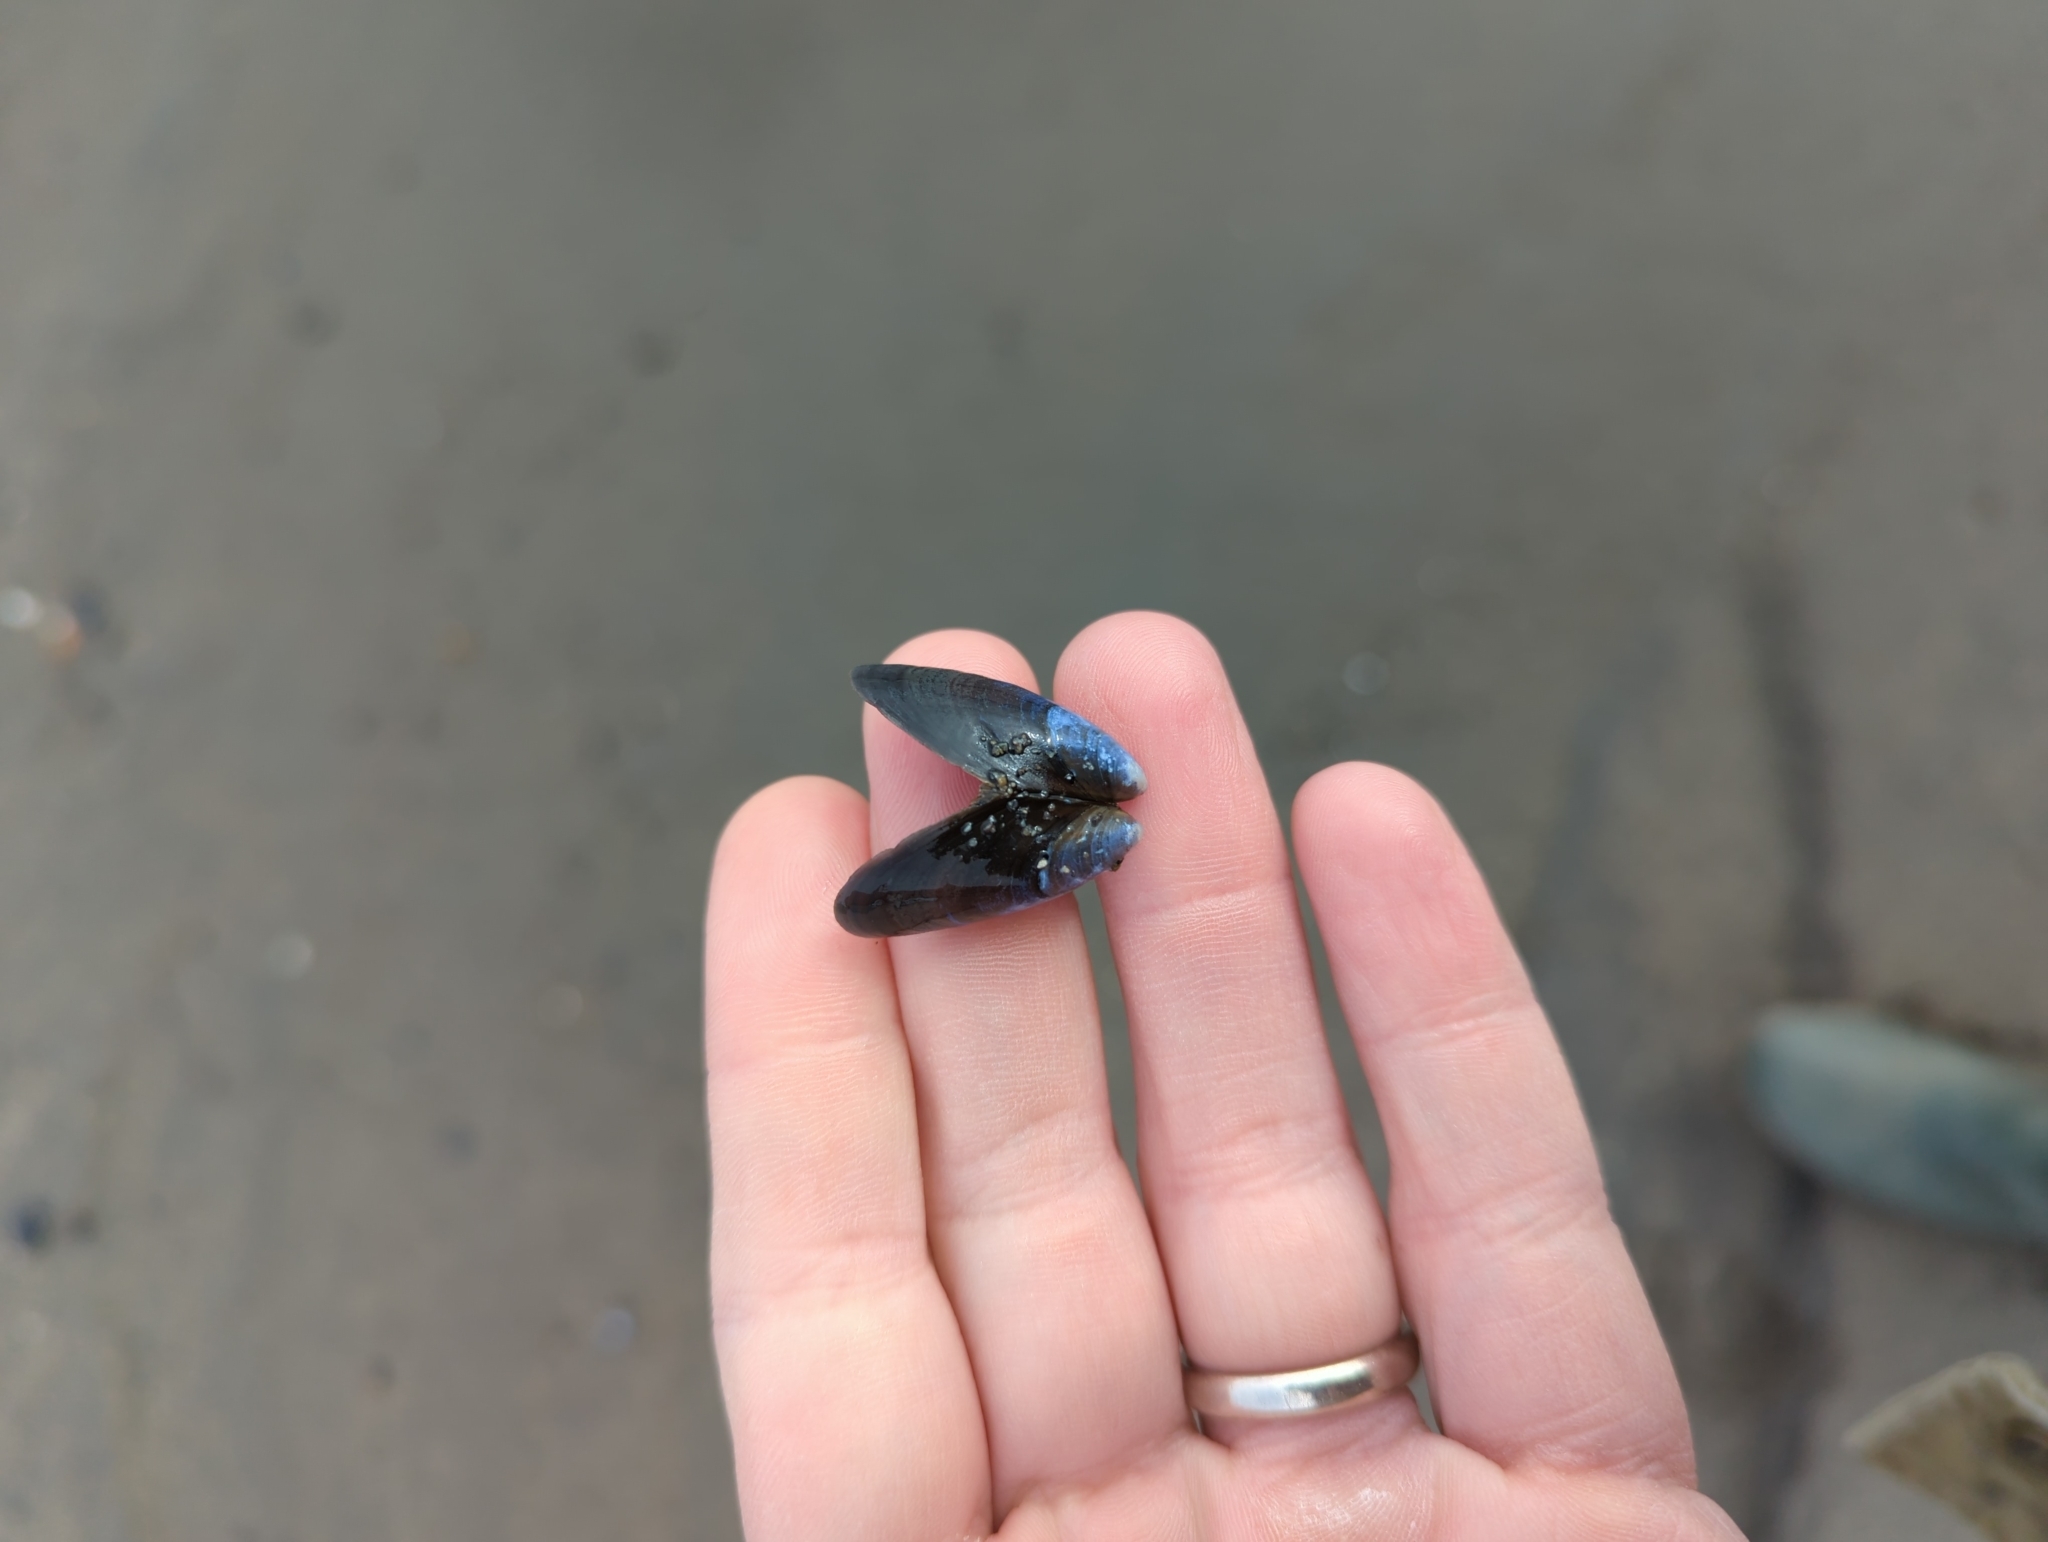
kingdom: Animalia
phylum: Mollusca
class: Bivalvia
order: Mytilida
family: Mytilidae
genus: Mytilus
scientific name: Mytilus trossulus
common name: Northern blue mussel
